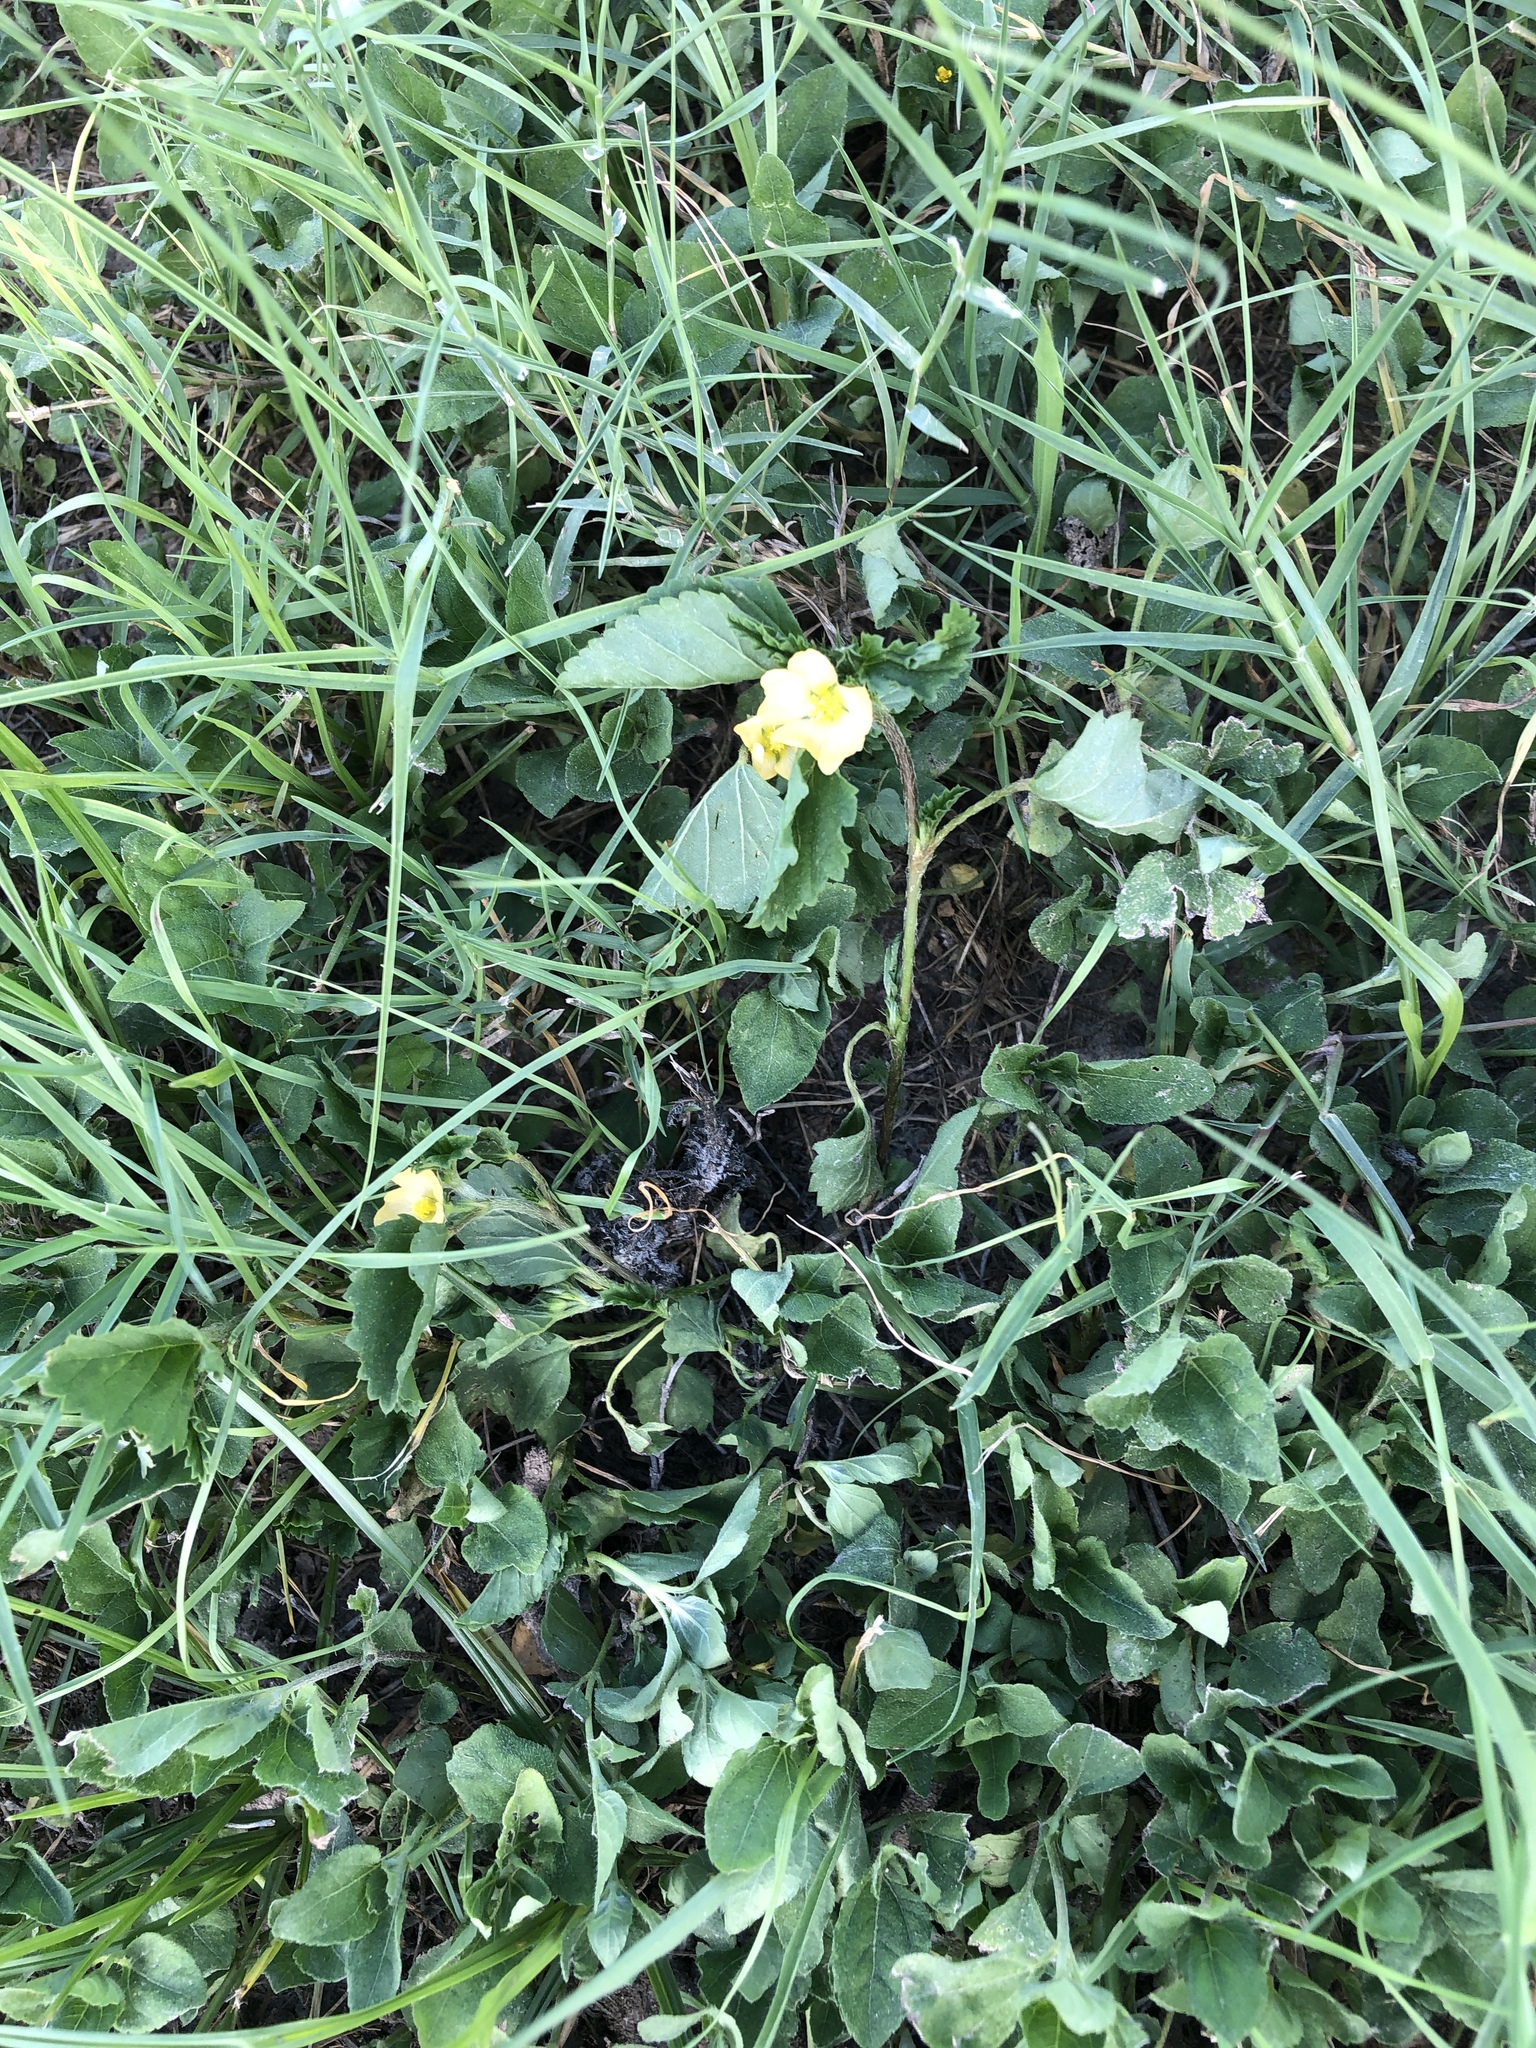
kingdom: Plantae
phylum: Tracheophyta
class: Magnoliopsida
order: Malvales
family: Malvaceae
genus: Malvastrum
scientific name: Malvastrum coromandelianum
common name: Threelobe false mallow
